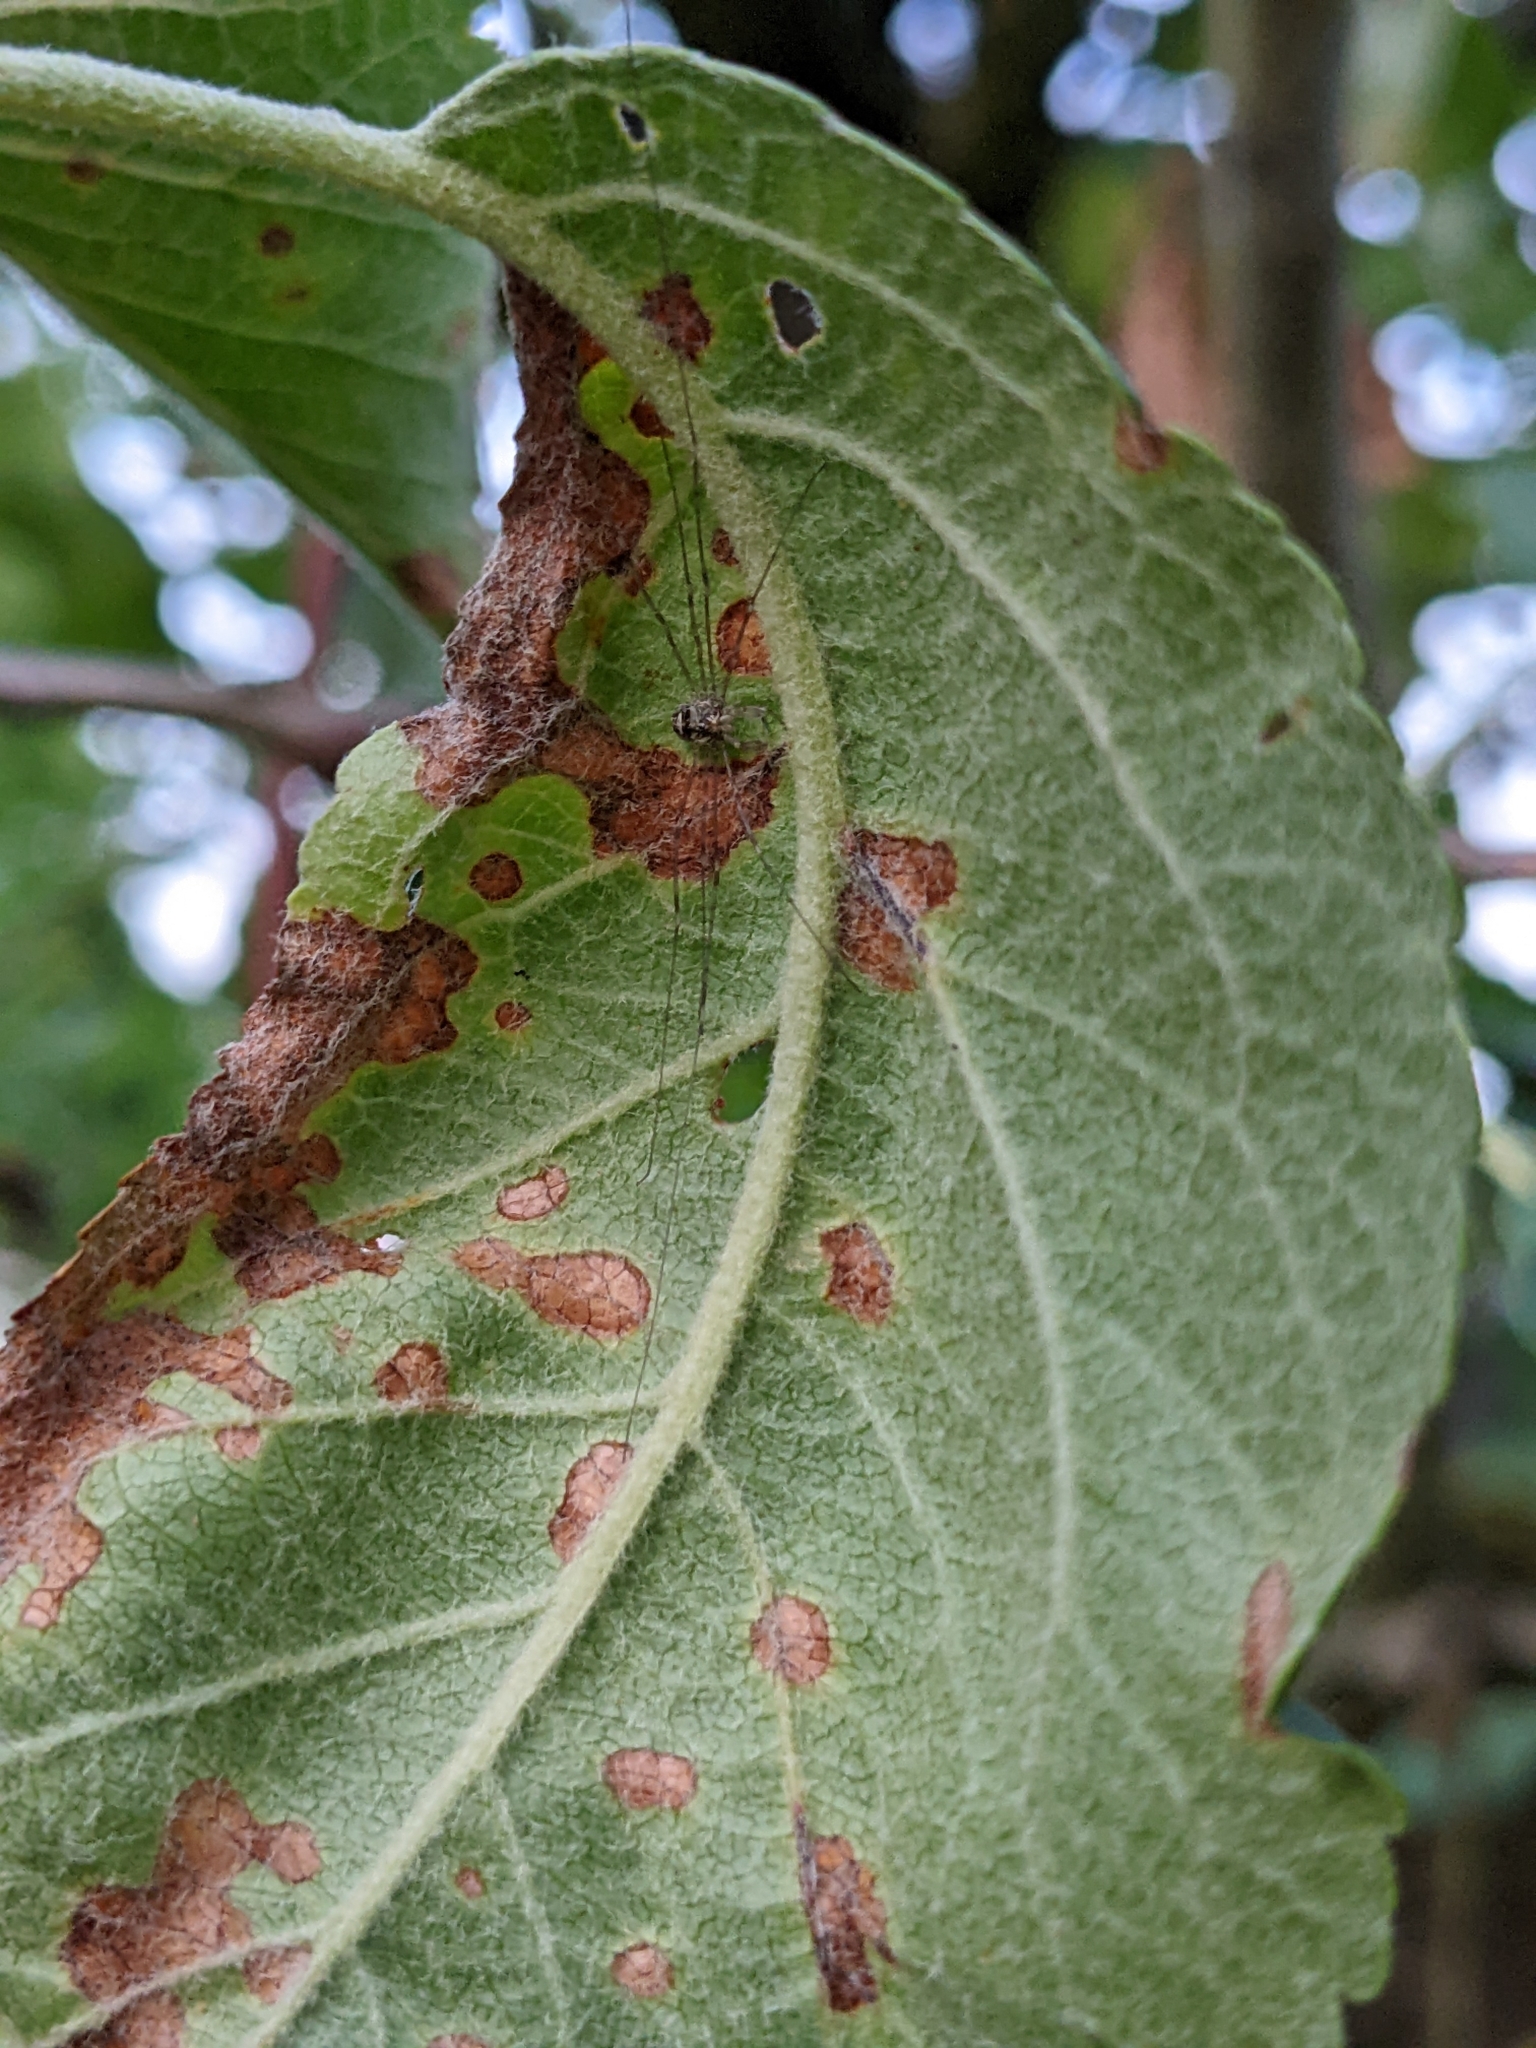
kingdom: Animalia
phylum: Arthropoda
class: Arachnida
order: Opiliones
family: Phalangiidae
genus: Dicranopalpus
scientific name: Dicranopalpus ramosus
